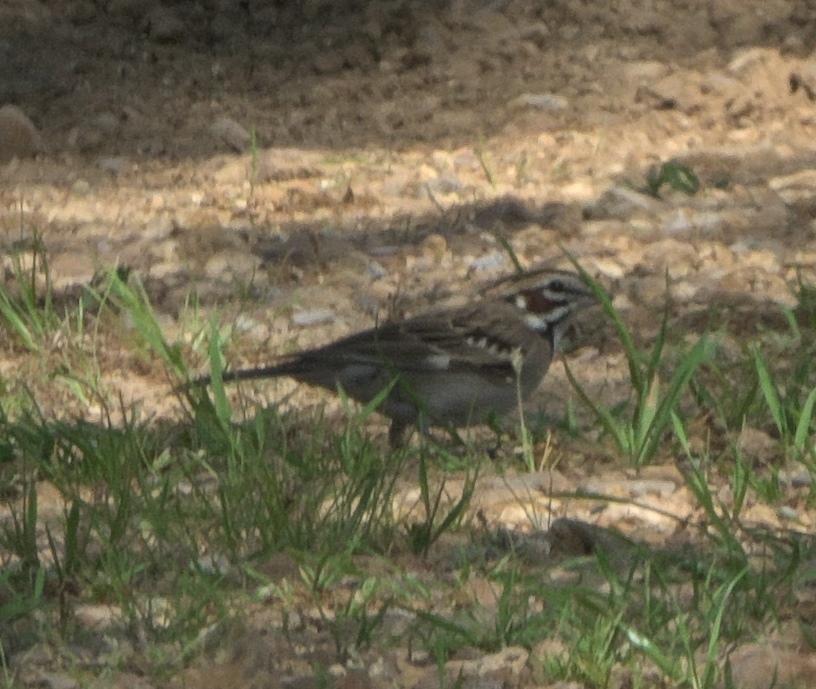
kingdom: Animalia
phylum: Chordata
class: Aves
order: Passeriformes
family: Passerellidae
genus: Chondestes
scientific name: Chondestes grammacus
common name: Lark sparrow
